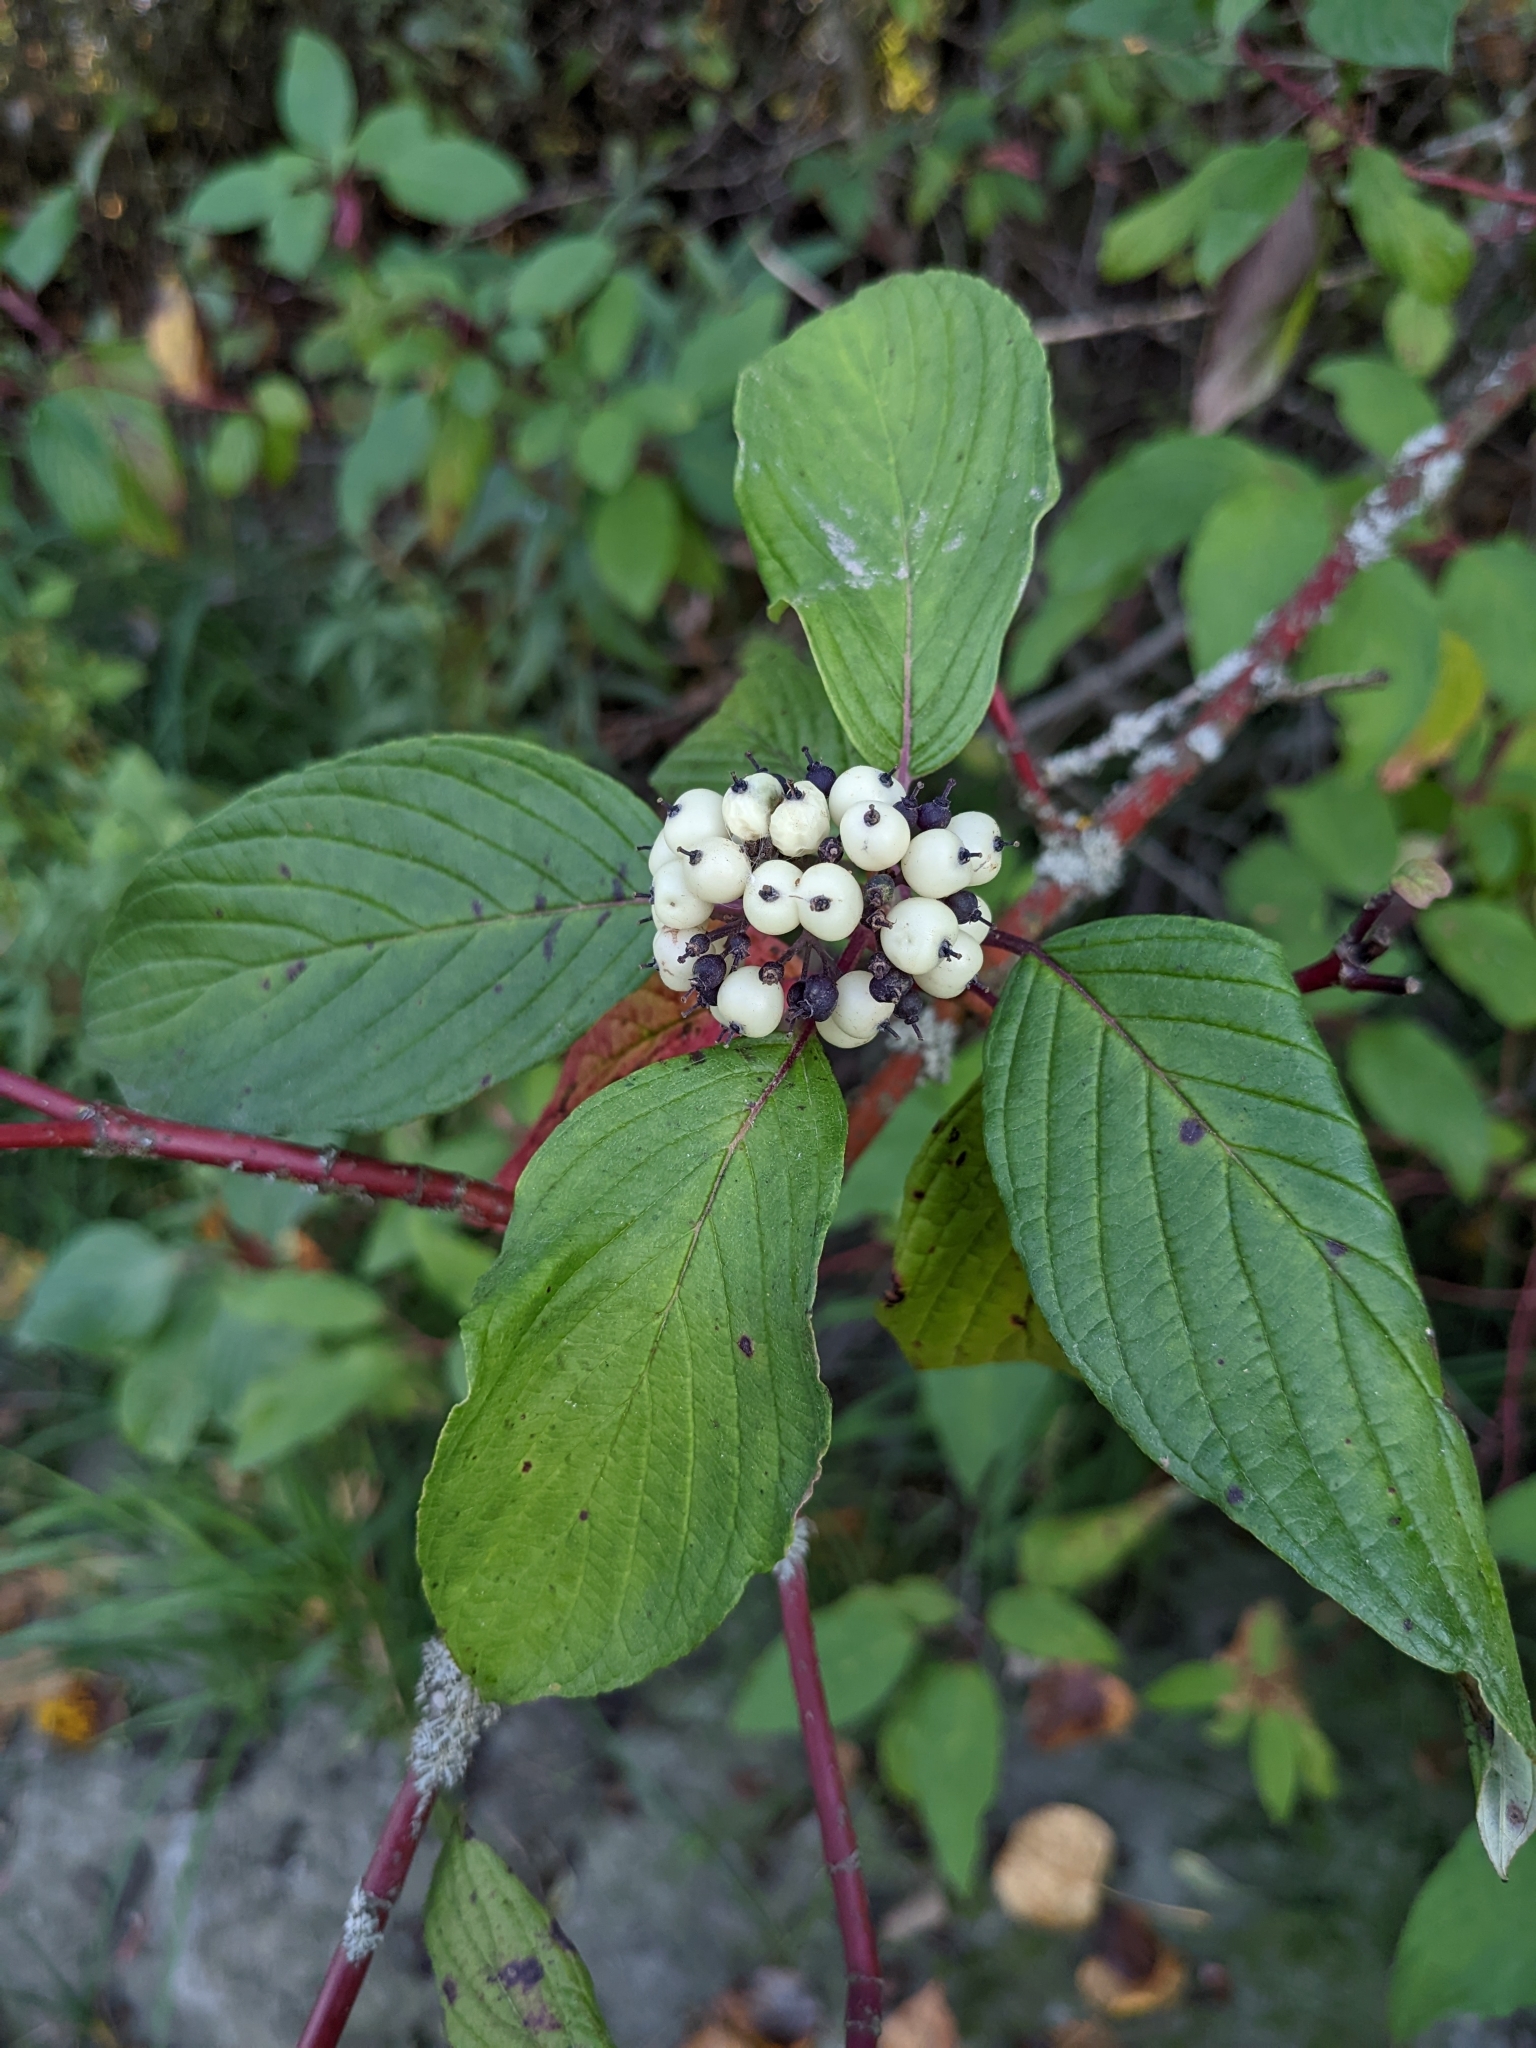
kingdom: Plantae
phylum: Tracheophyta
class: Magnoliopsida
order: Cornales
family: Cornaceae
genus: Cornus
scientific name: Cornus sericea
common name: Red-osier dogwood
